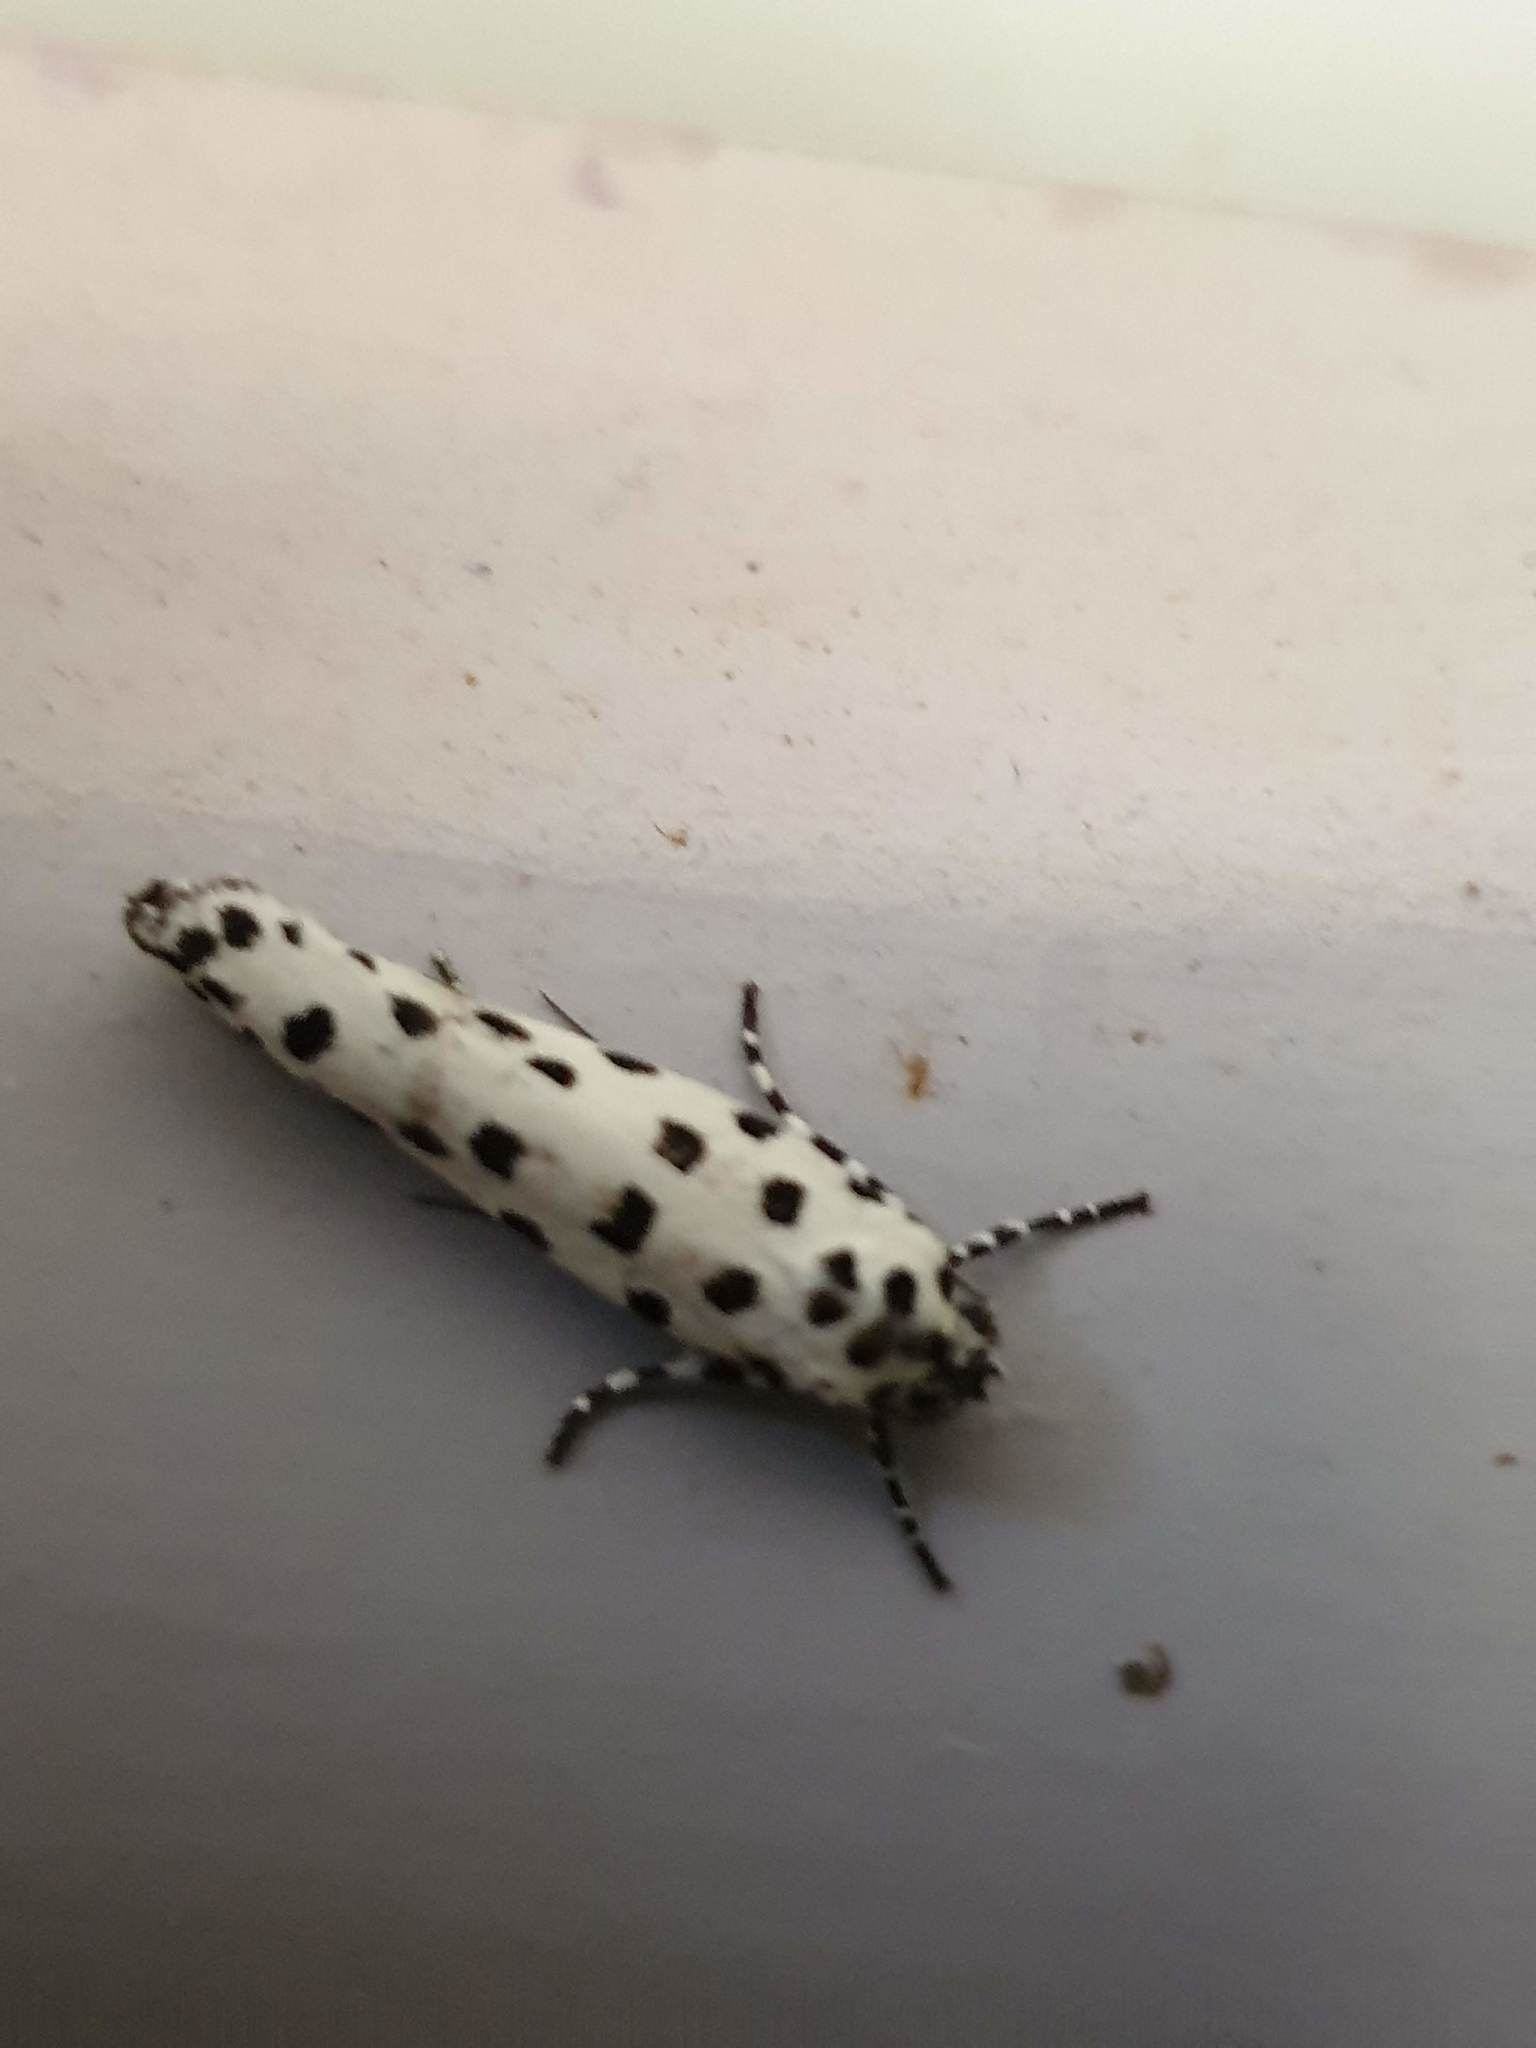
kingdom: Animalia
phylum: Arthropoda
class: Insecta
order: Lepidoptera
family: Ethmiidae
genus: Ethmia
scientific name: Ethmia clytodoxa
